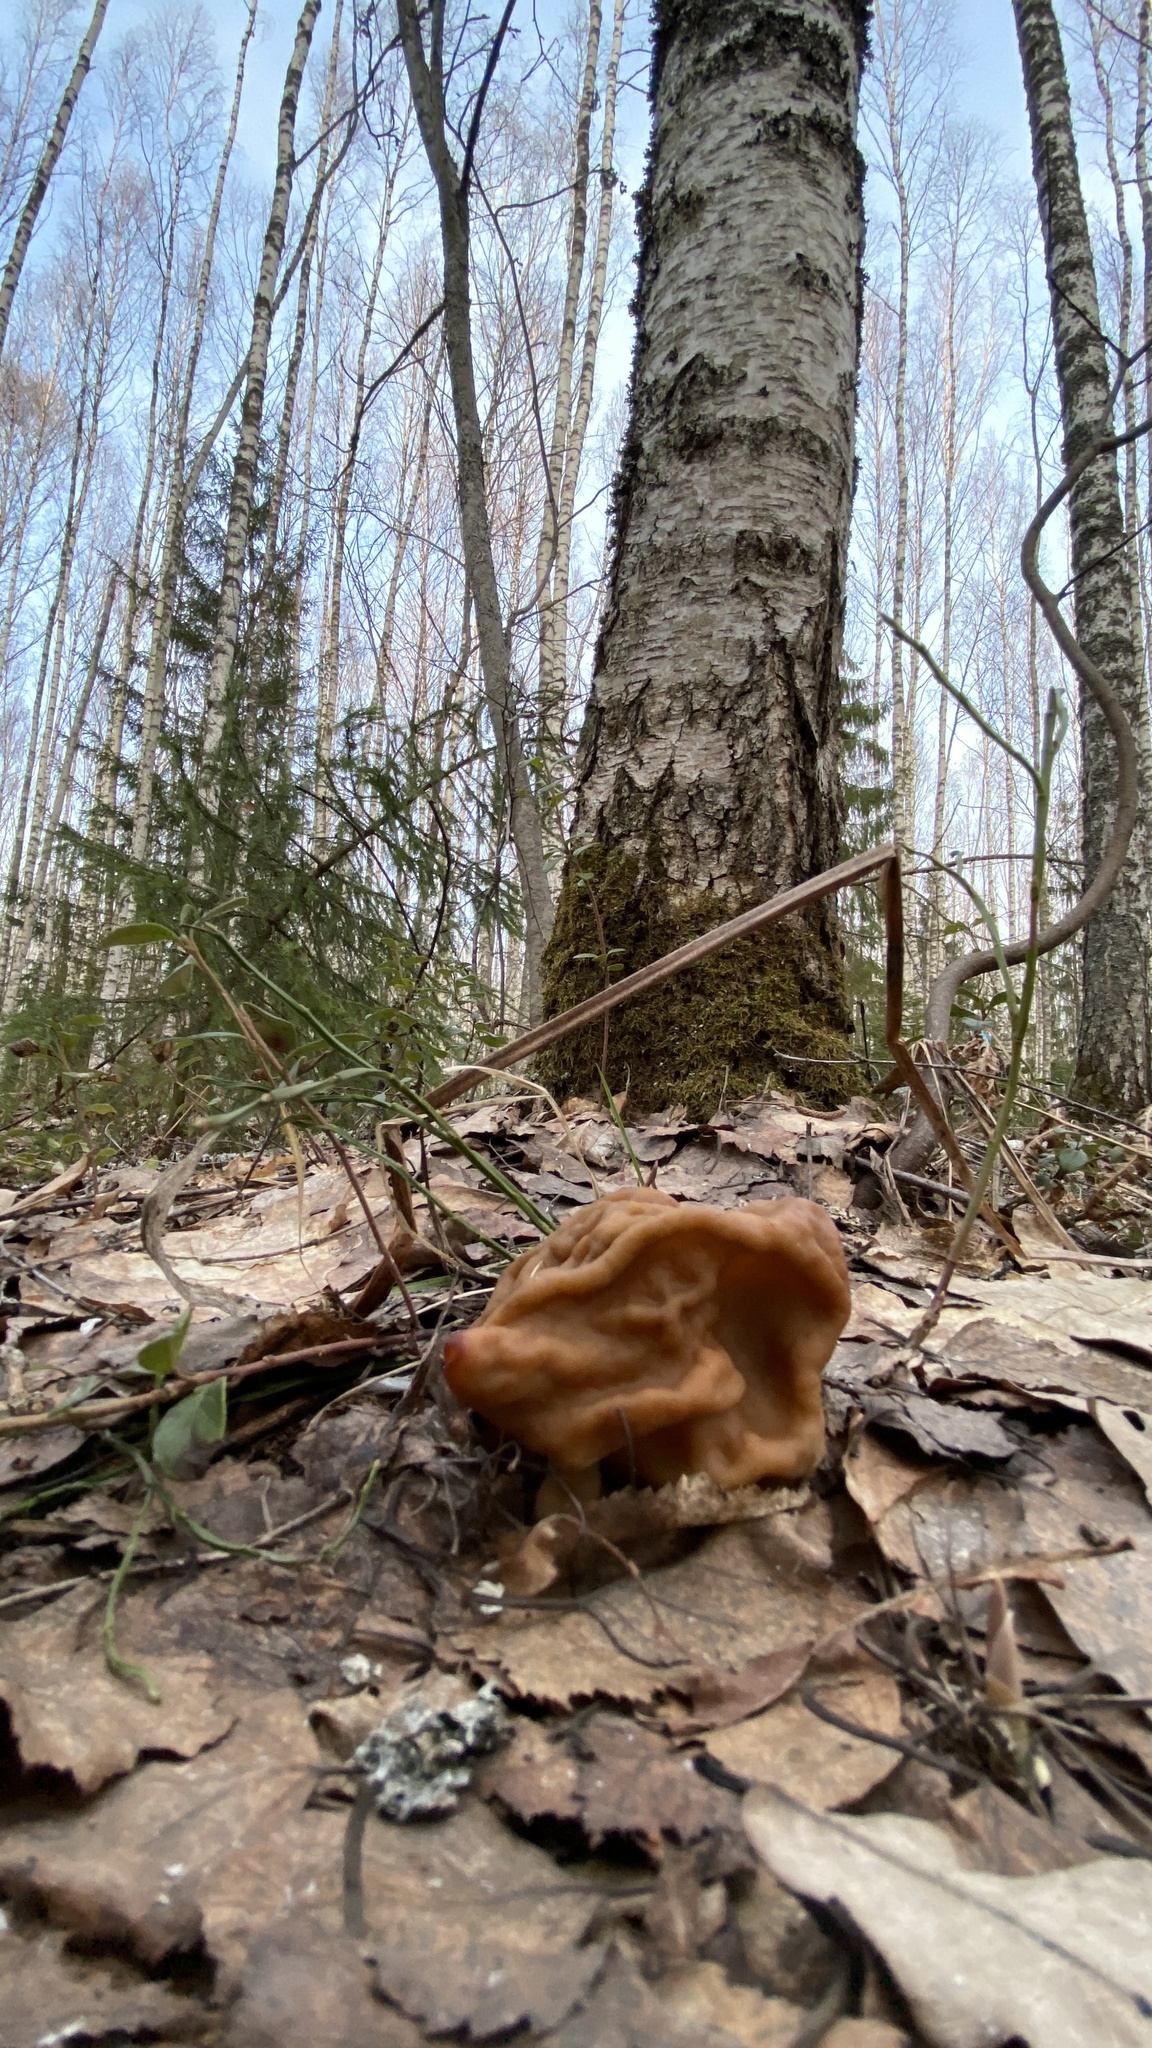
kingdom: Fungi
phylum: Ascomycota
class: Pezizomycetes
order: Pezizales
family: Discinaceae
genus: Gyromitra
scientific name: Gyromitra gigas
